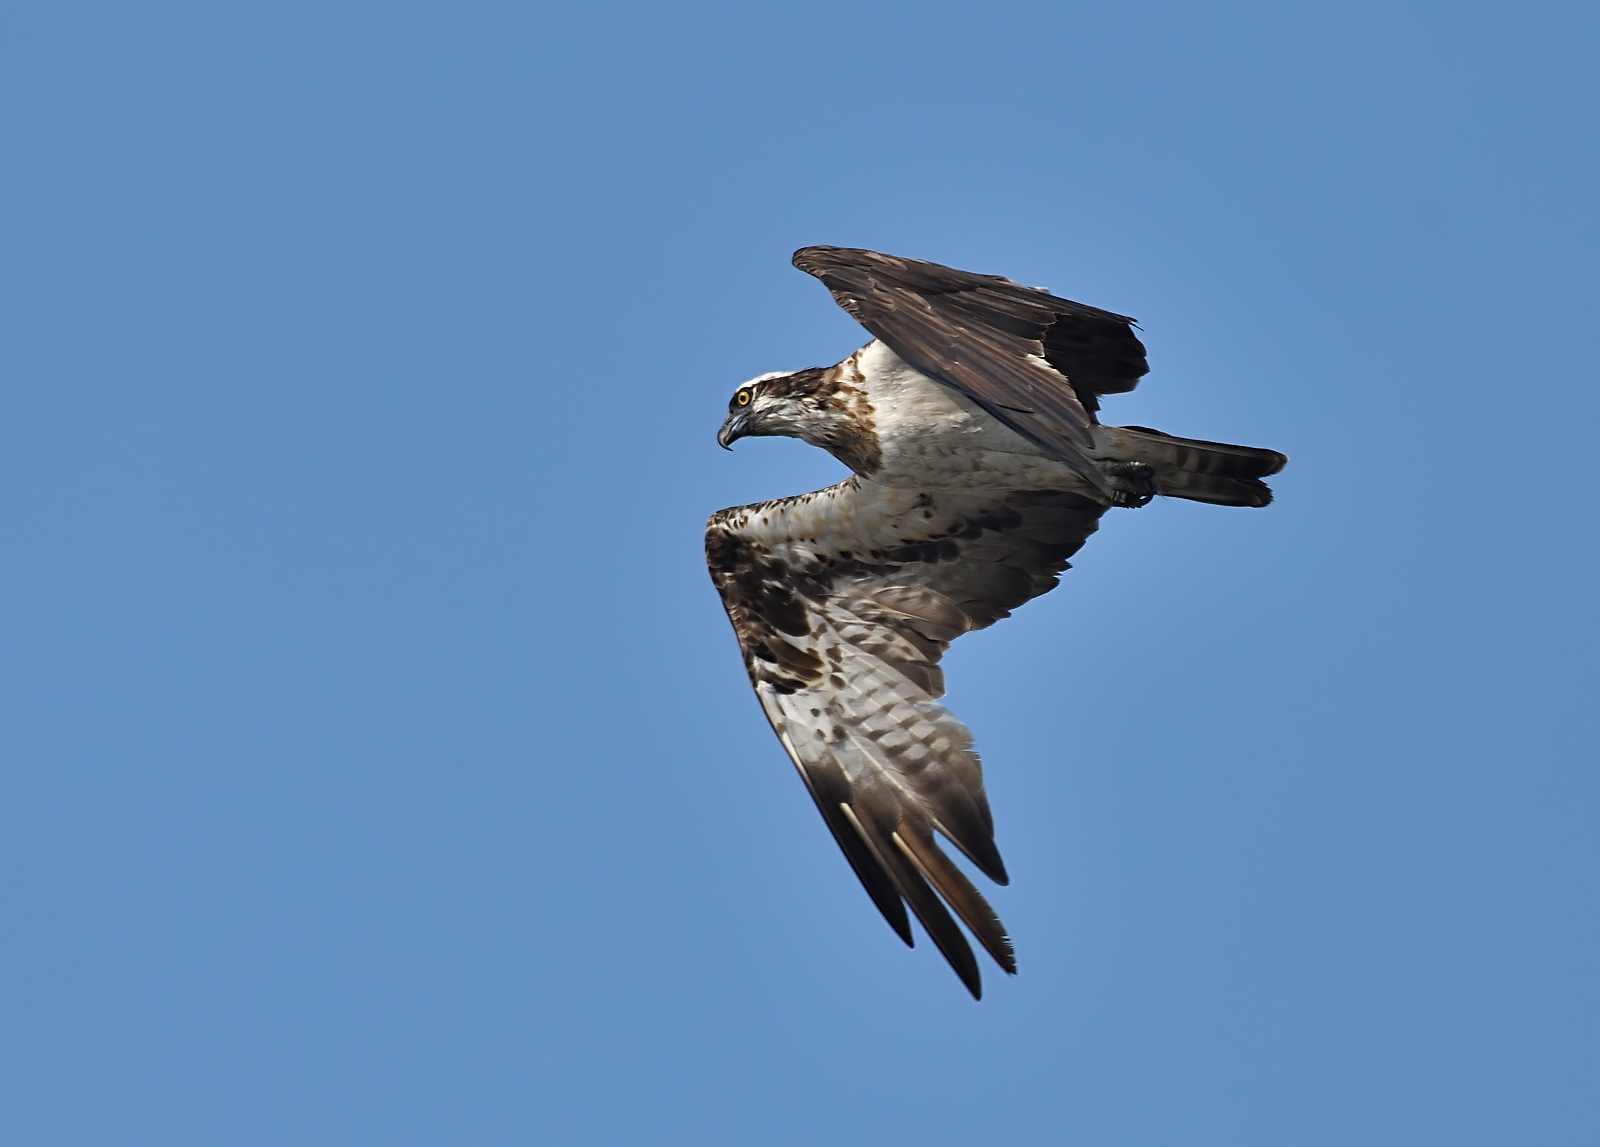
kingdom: Animalia
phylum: Chordata
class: Aves
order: Accipitriformes
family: Pandionidae
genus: Pandion
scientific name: Pandion haliaetus
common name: Osprey
